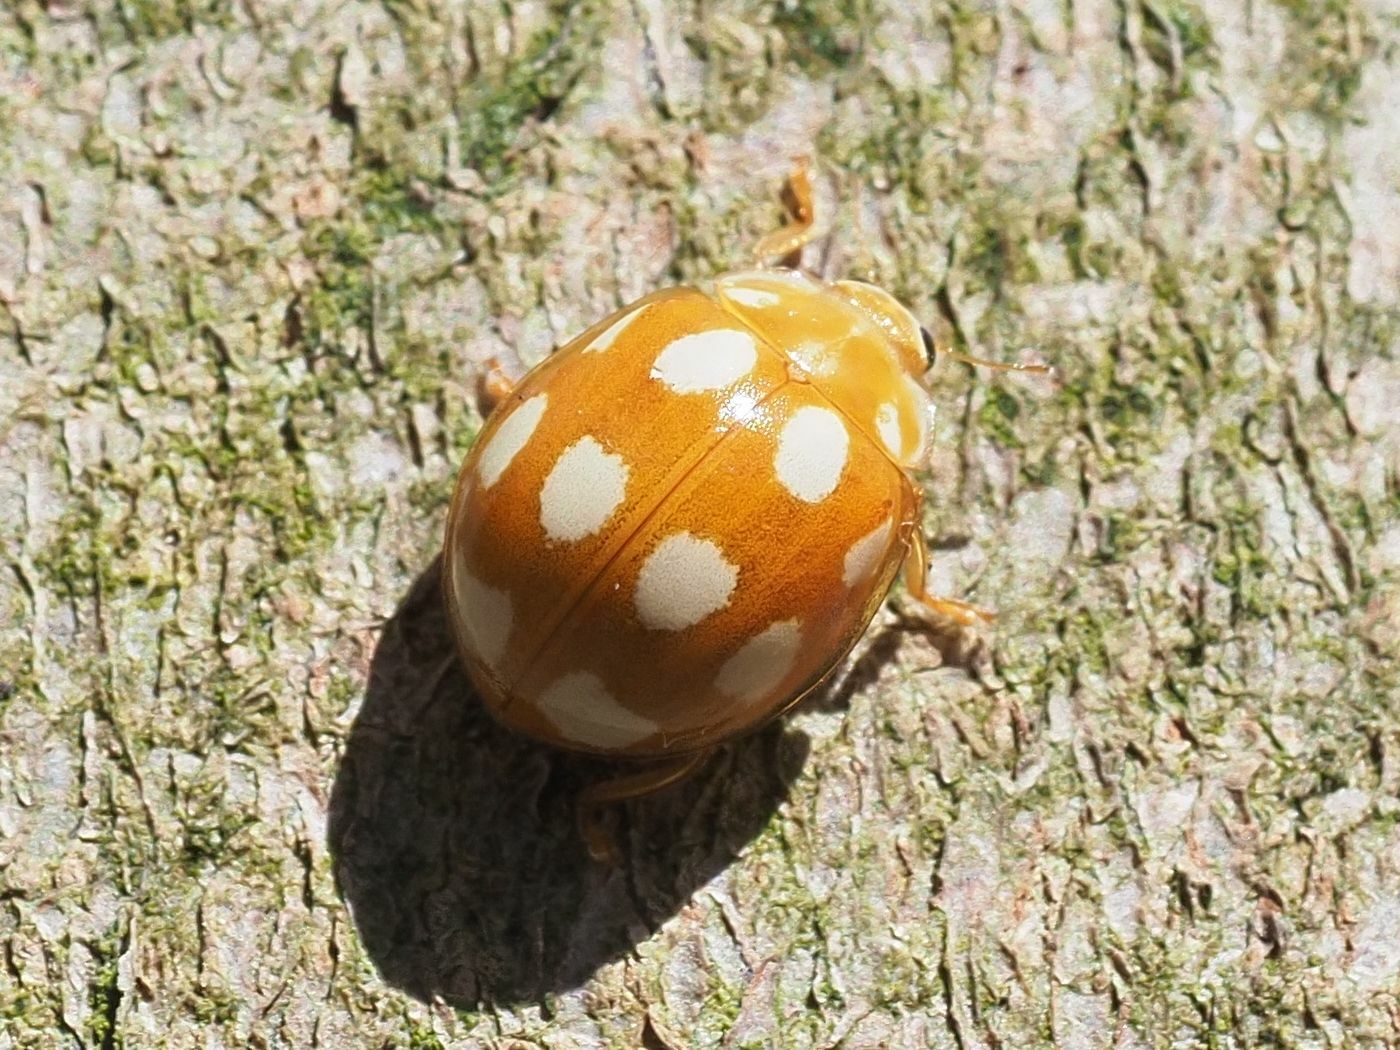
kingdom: Animalia
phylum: Arthropoda
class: Insecta
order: Coleoptera
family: Coccinellidae
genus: Calvia
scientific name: Calvia decemguttata
